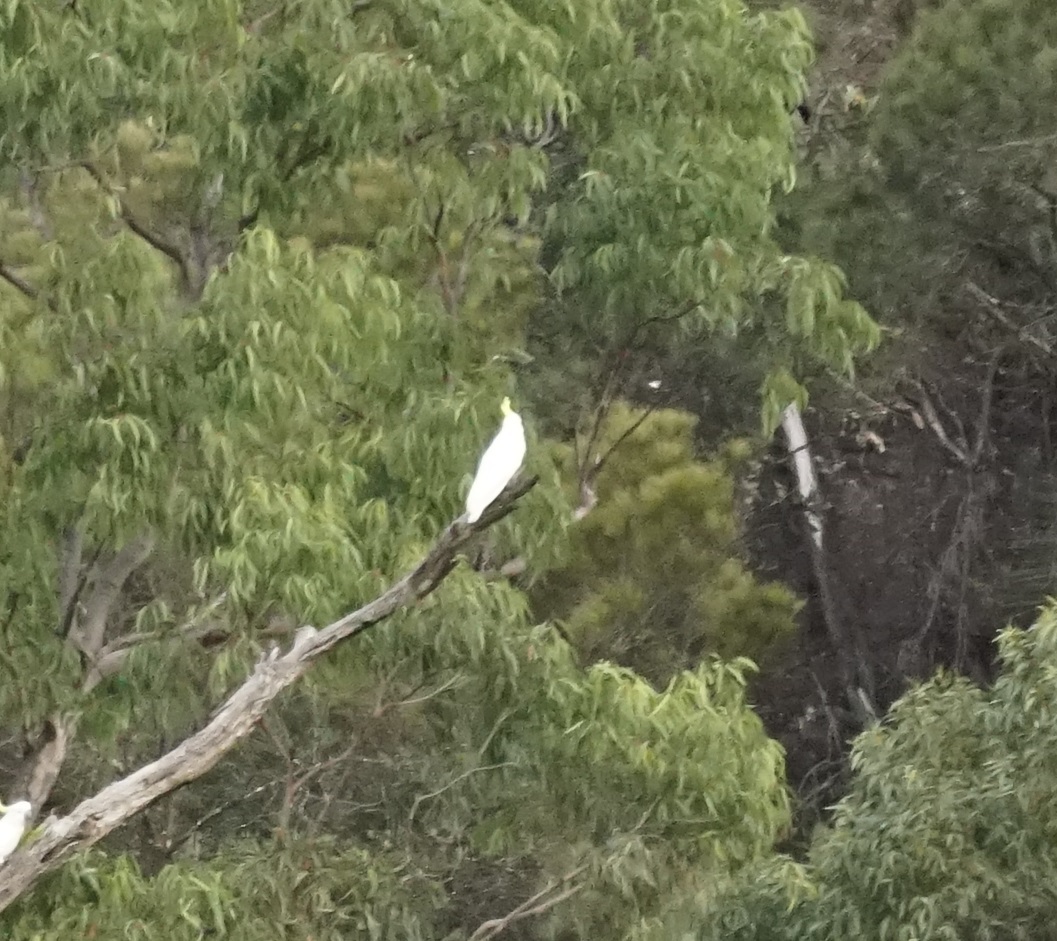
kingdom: Animalia
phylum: Chordata
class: Aves
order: Psittaciformes
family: Psittacidae
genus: Cacatua
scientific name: Cacatua galerita
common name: Sulphur-crested cockatoo
